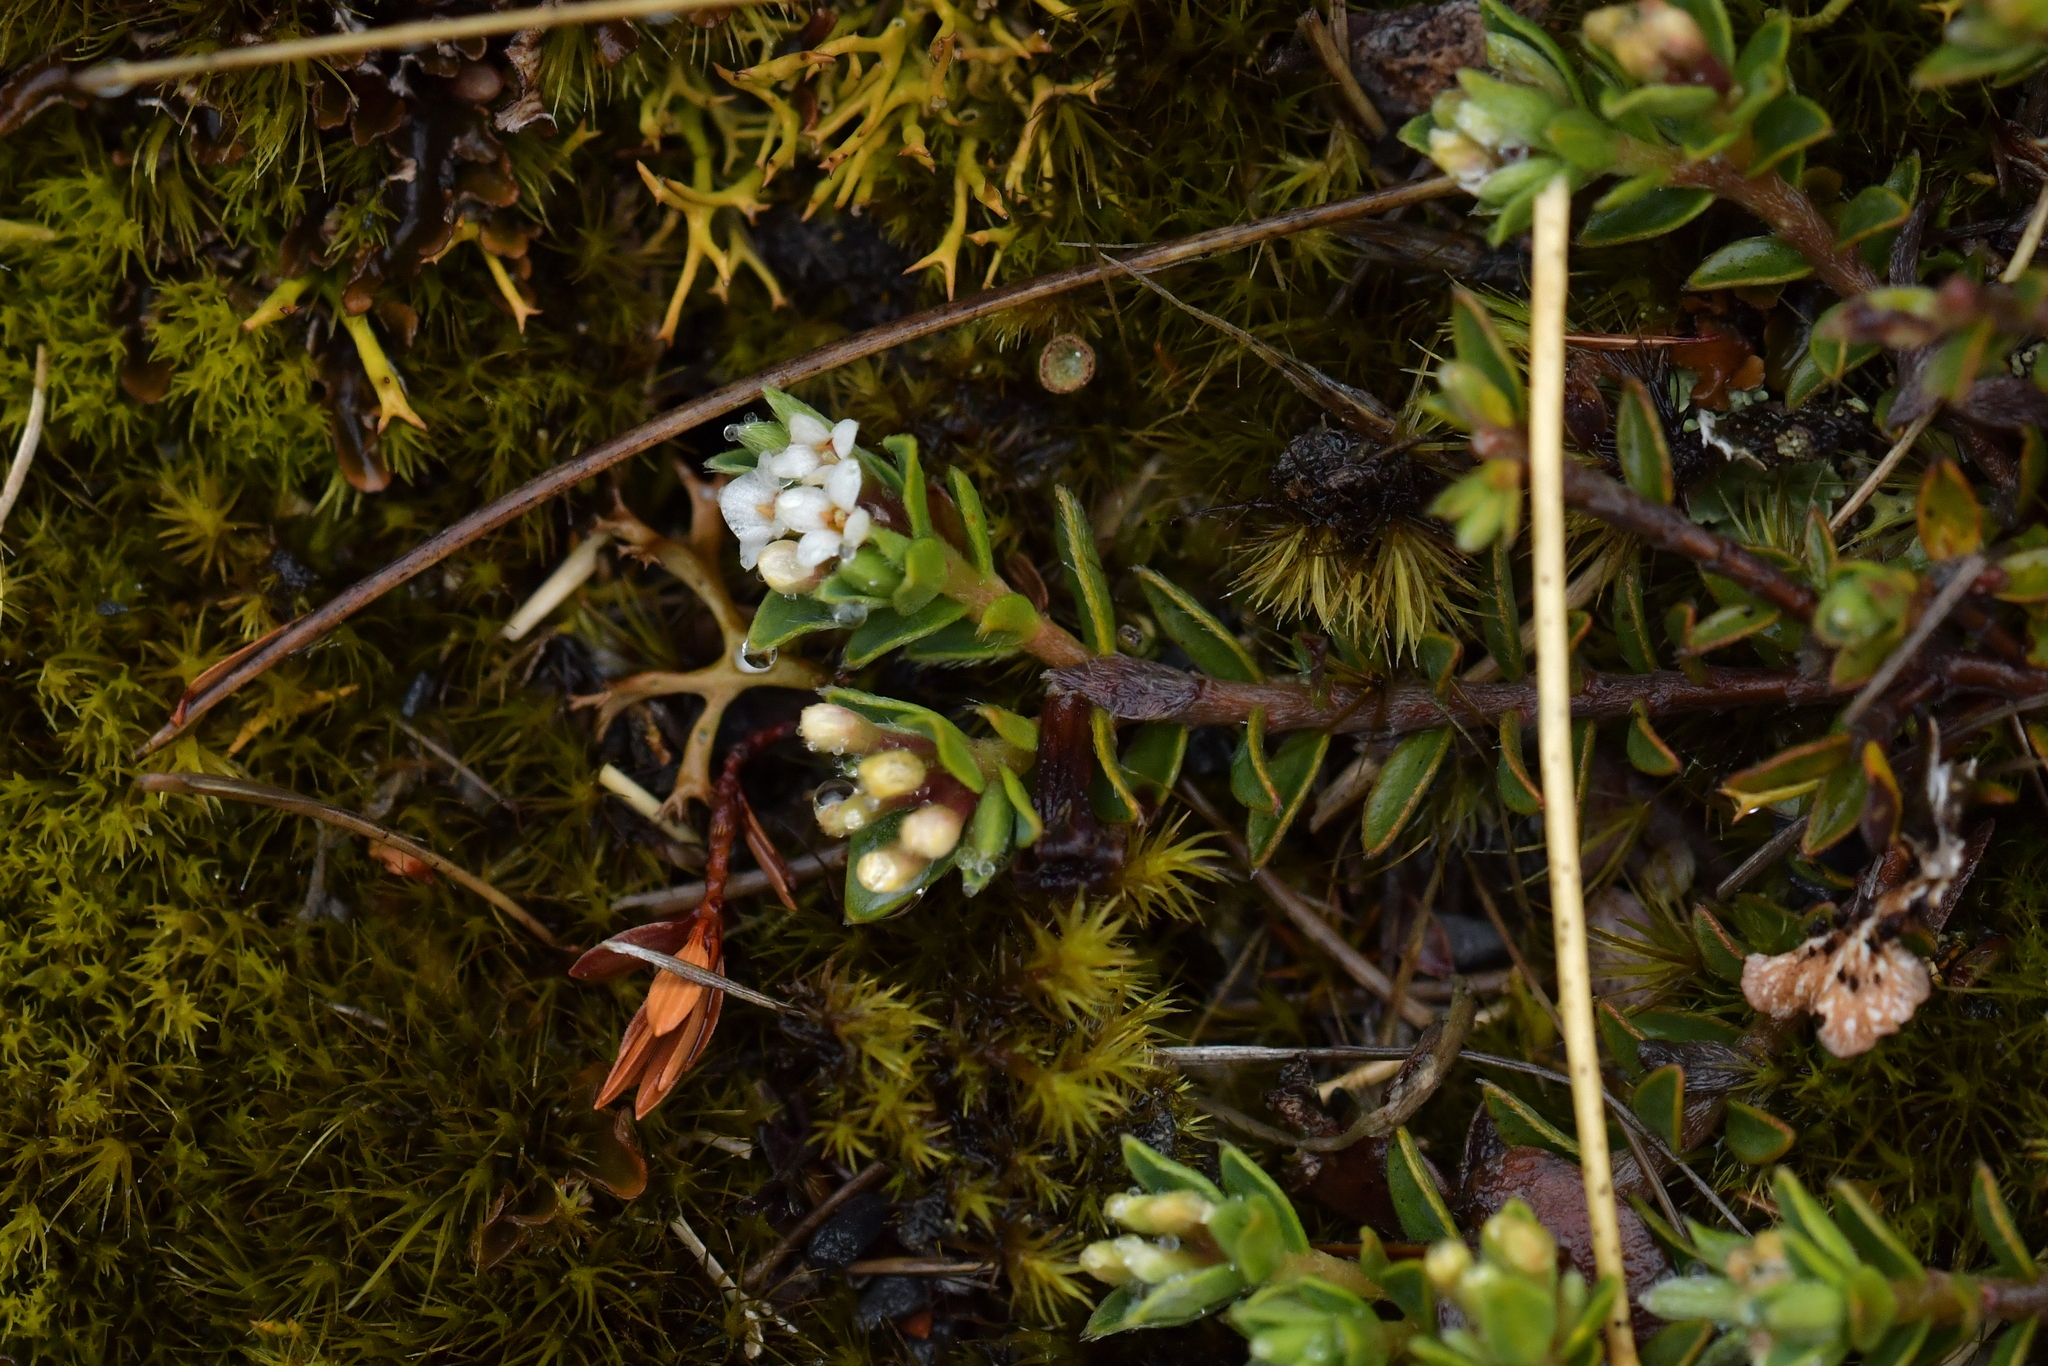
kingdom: Plantae
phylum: Tracheophyta
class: Magnoliopsida
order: Malvales
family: Thymelaeaceae
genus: Pimelea
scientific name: Pimelea oreophila
